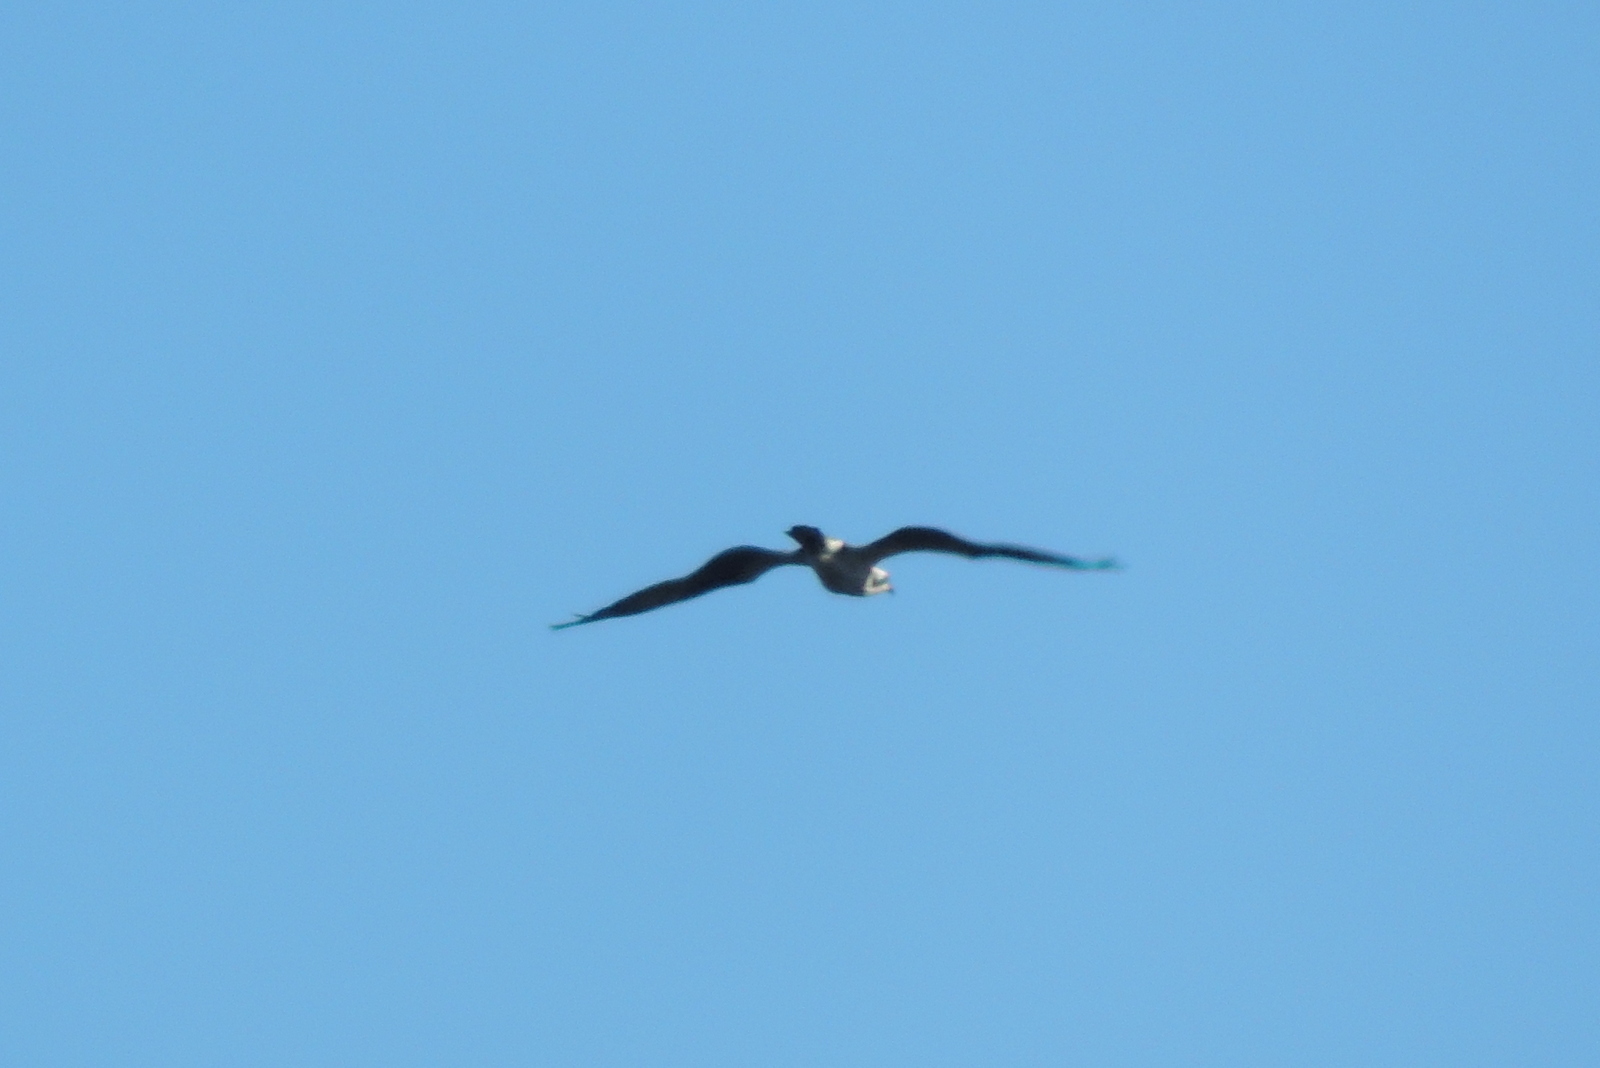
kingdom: Animalia
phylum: Chordata
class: Aves
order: Accipitriformes
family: Pandionidae
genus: Pandion
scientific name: Pandion haliaetus
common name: Osprey
